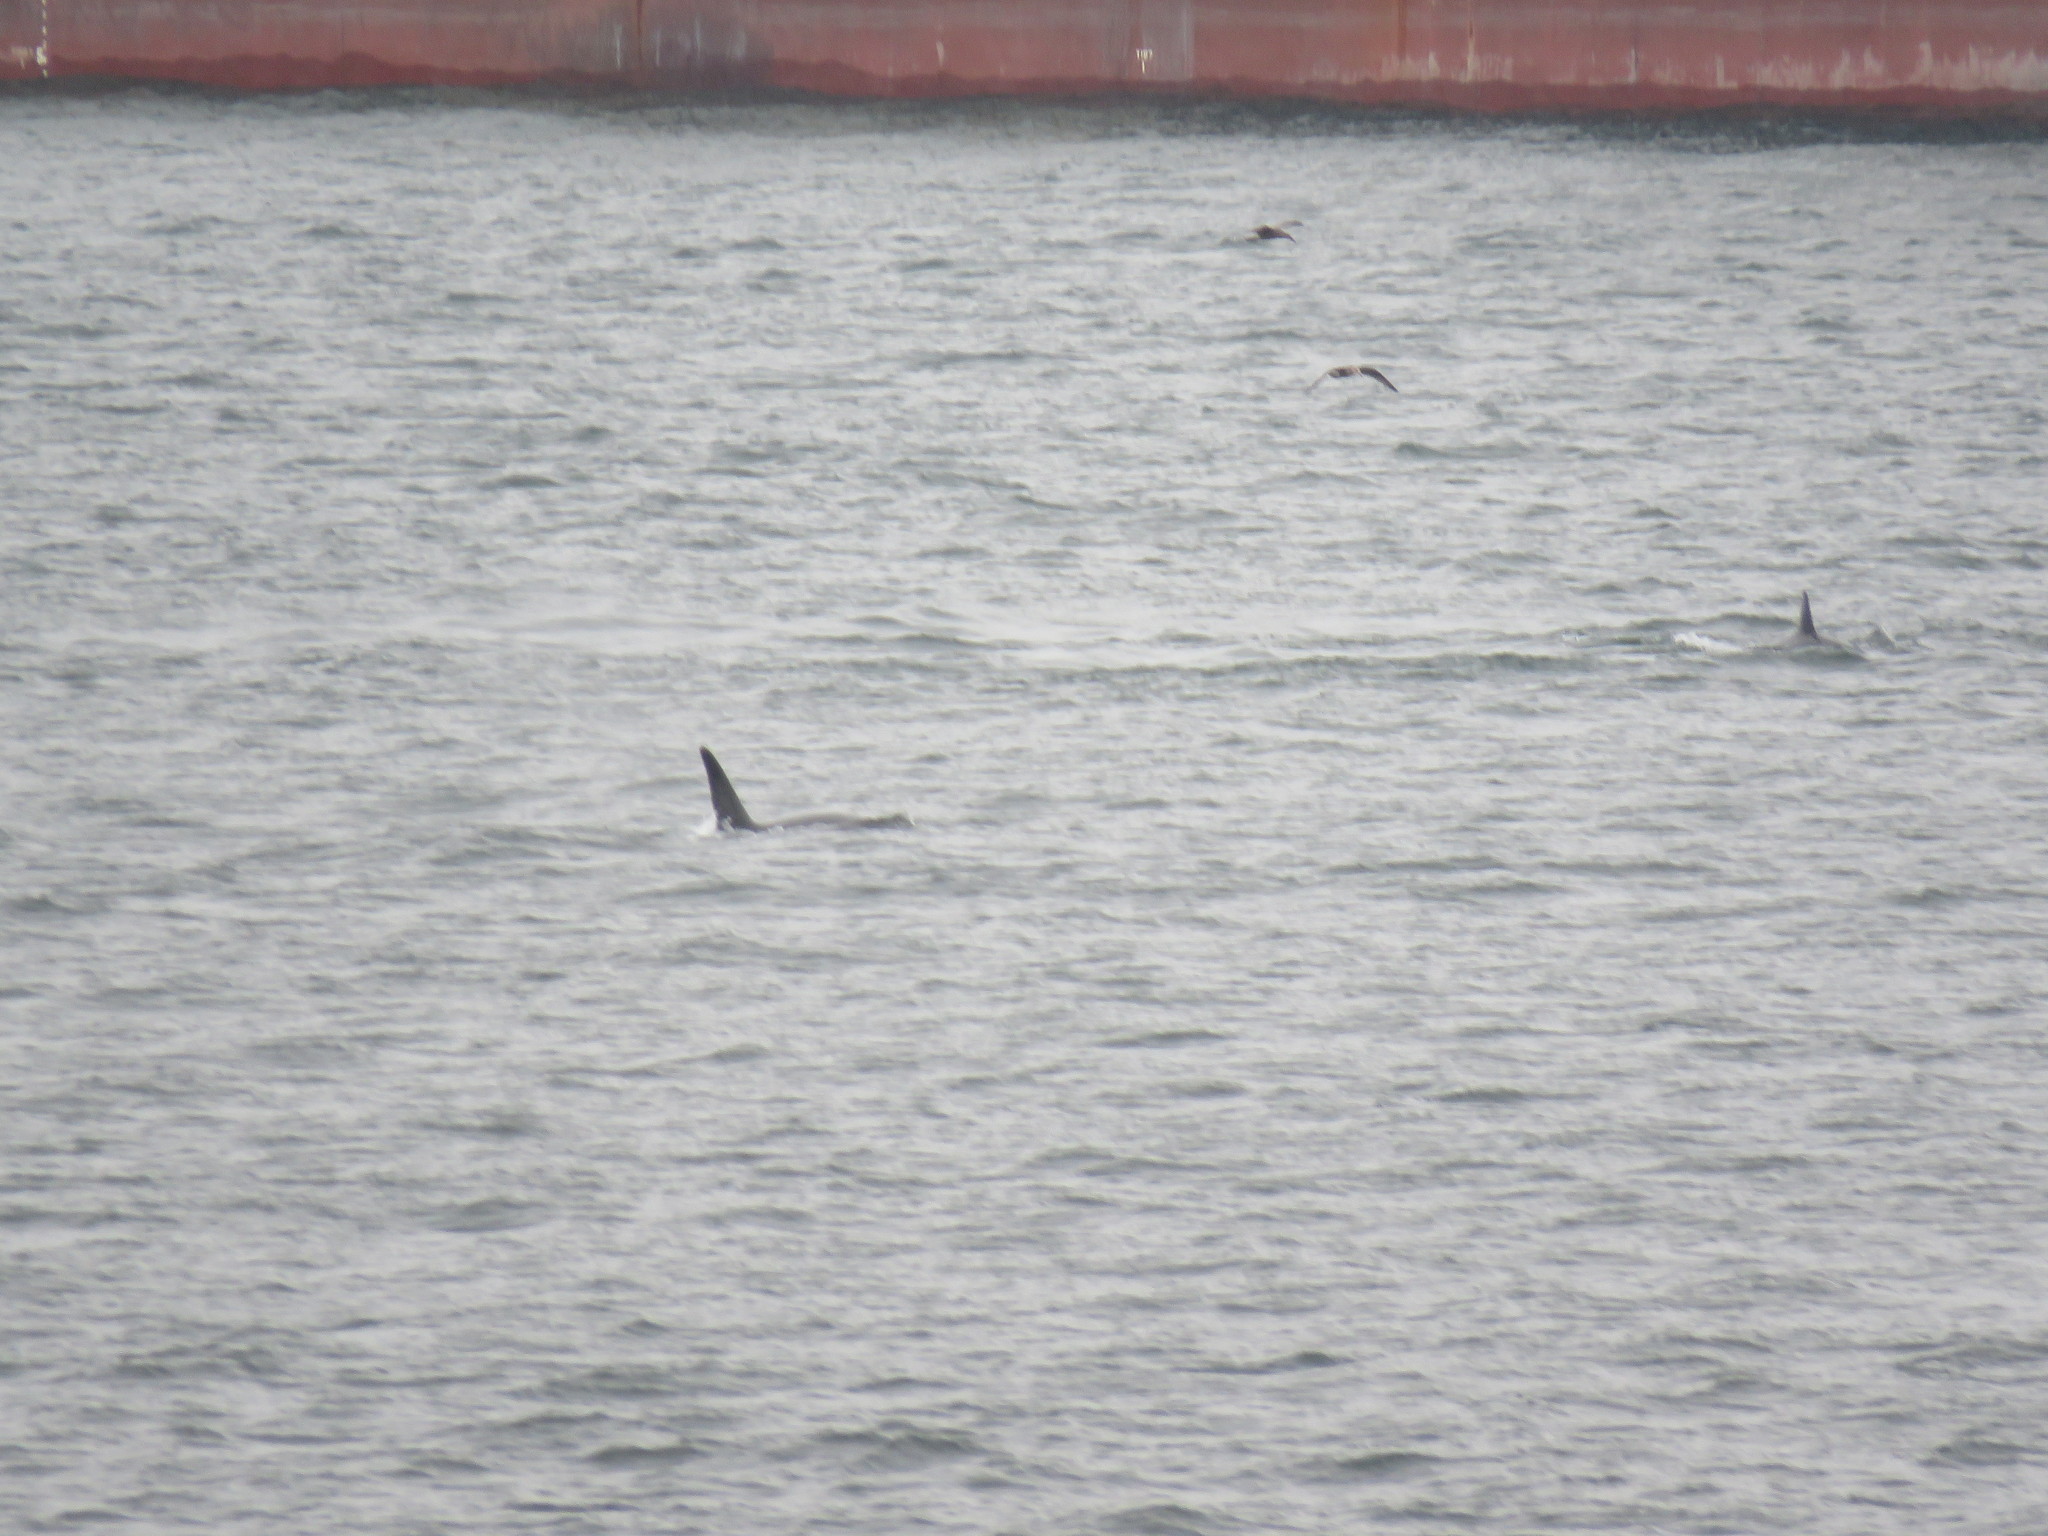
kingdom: Animalia
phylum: Chordata
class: Mammalia
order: Cetacea
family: Delphinidae
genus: Orcinus
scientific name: Orcinus orca
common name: Killer whale
